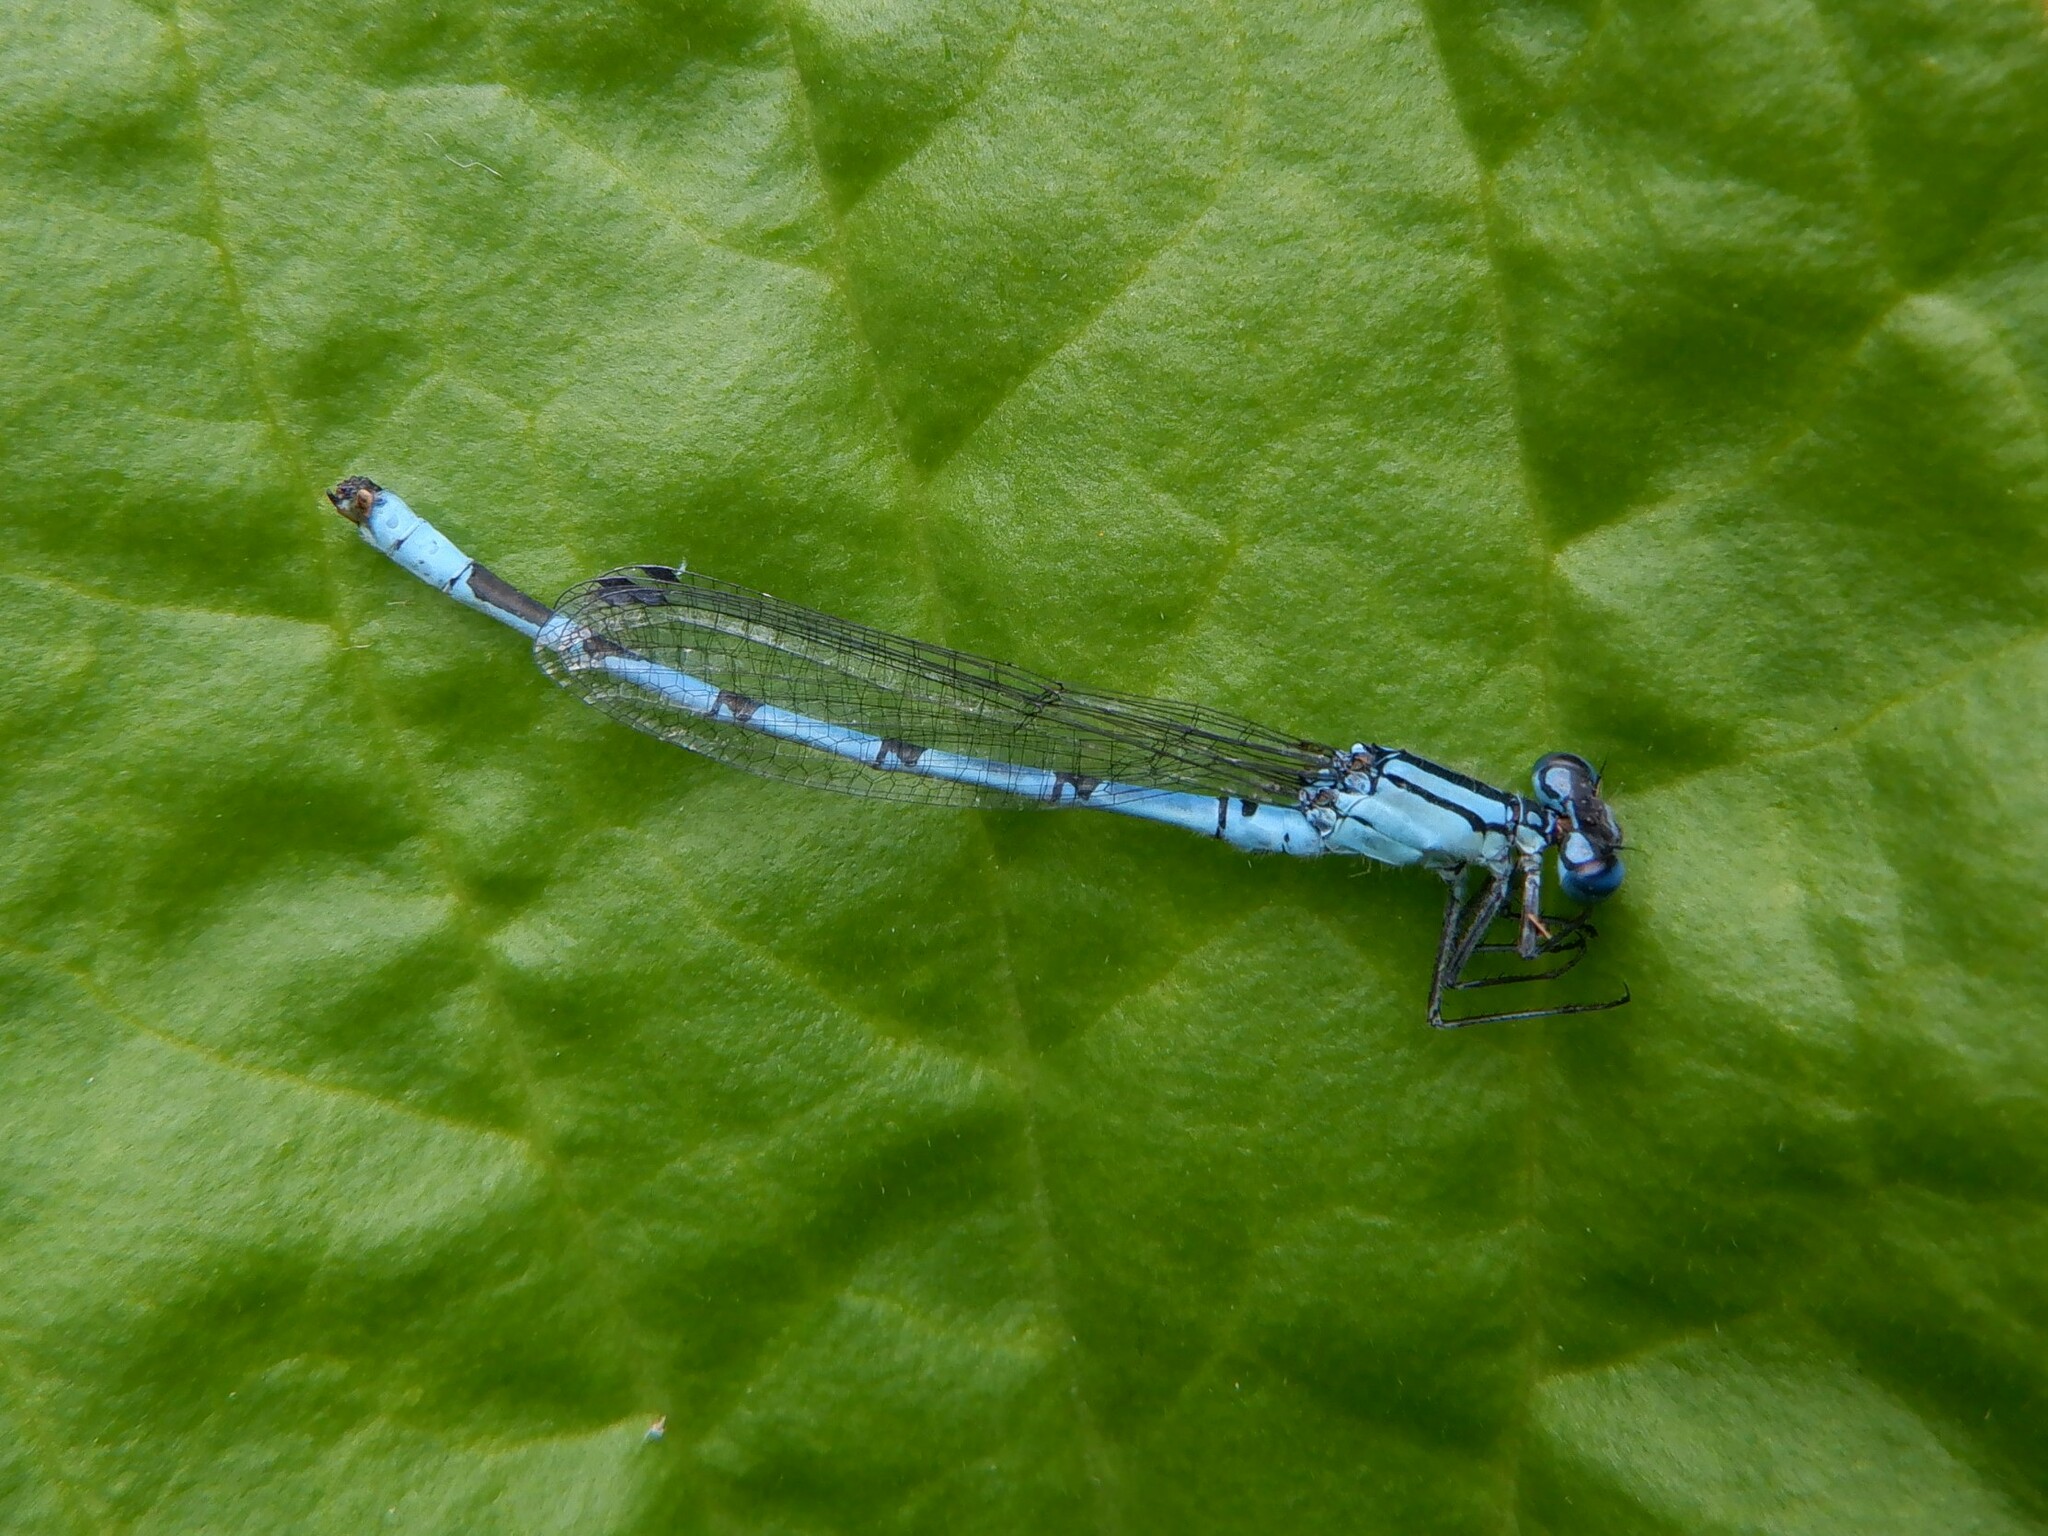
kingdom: Animalia
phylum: Arthropoda
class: Insecta
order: Odonata
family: Coenagrionidae
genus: Enallagma
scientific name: Enallagma cyathigerum
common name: Common blue damselfly
